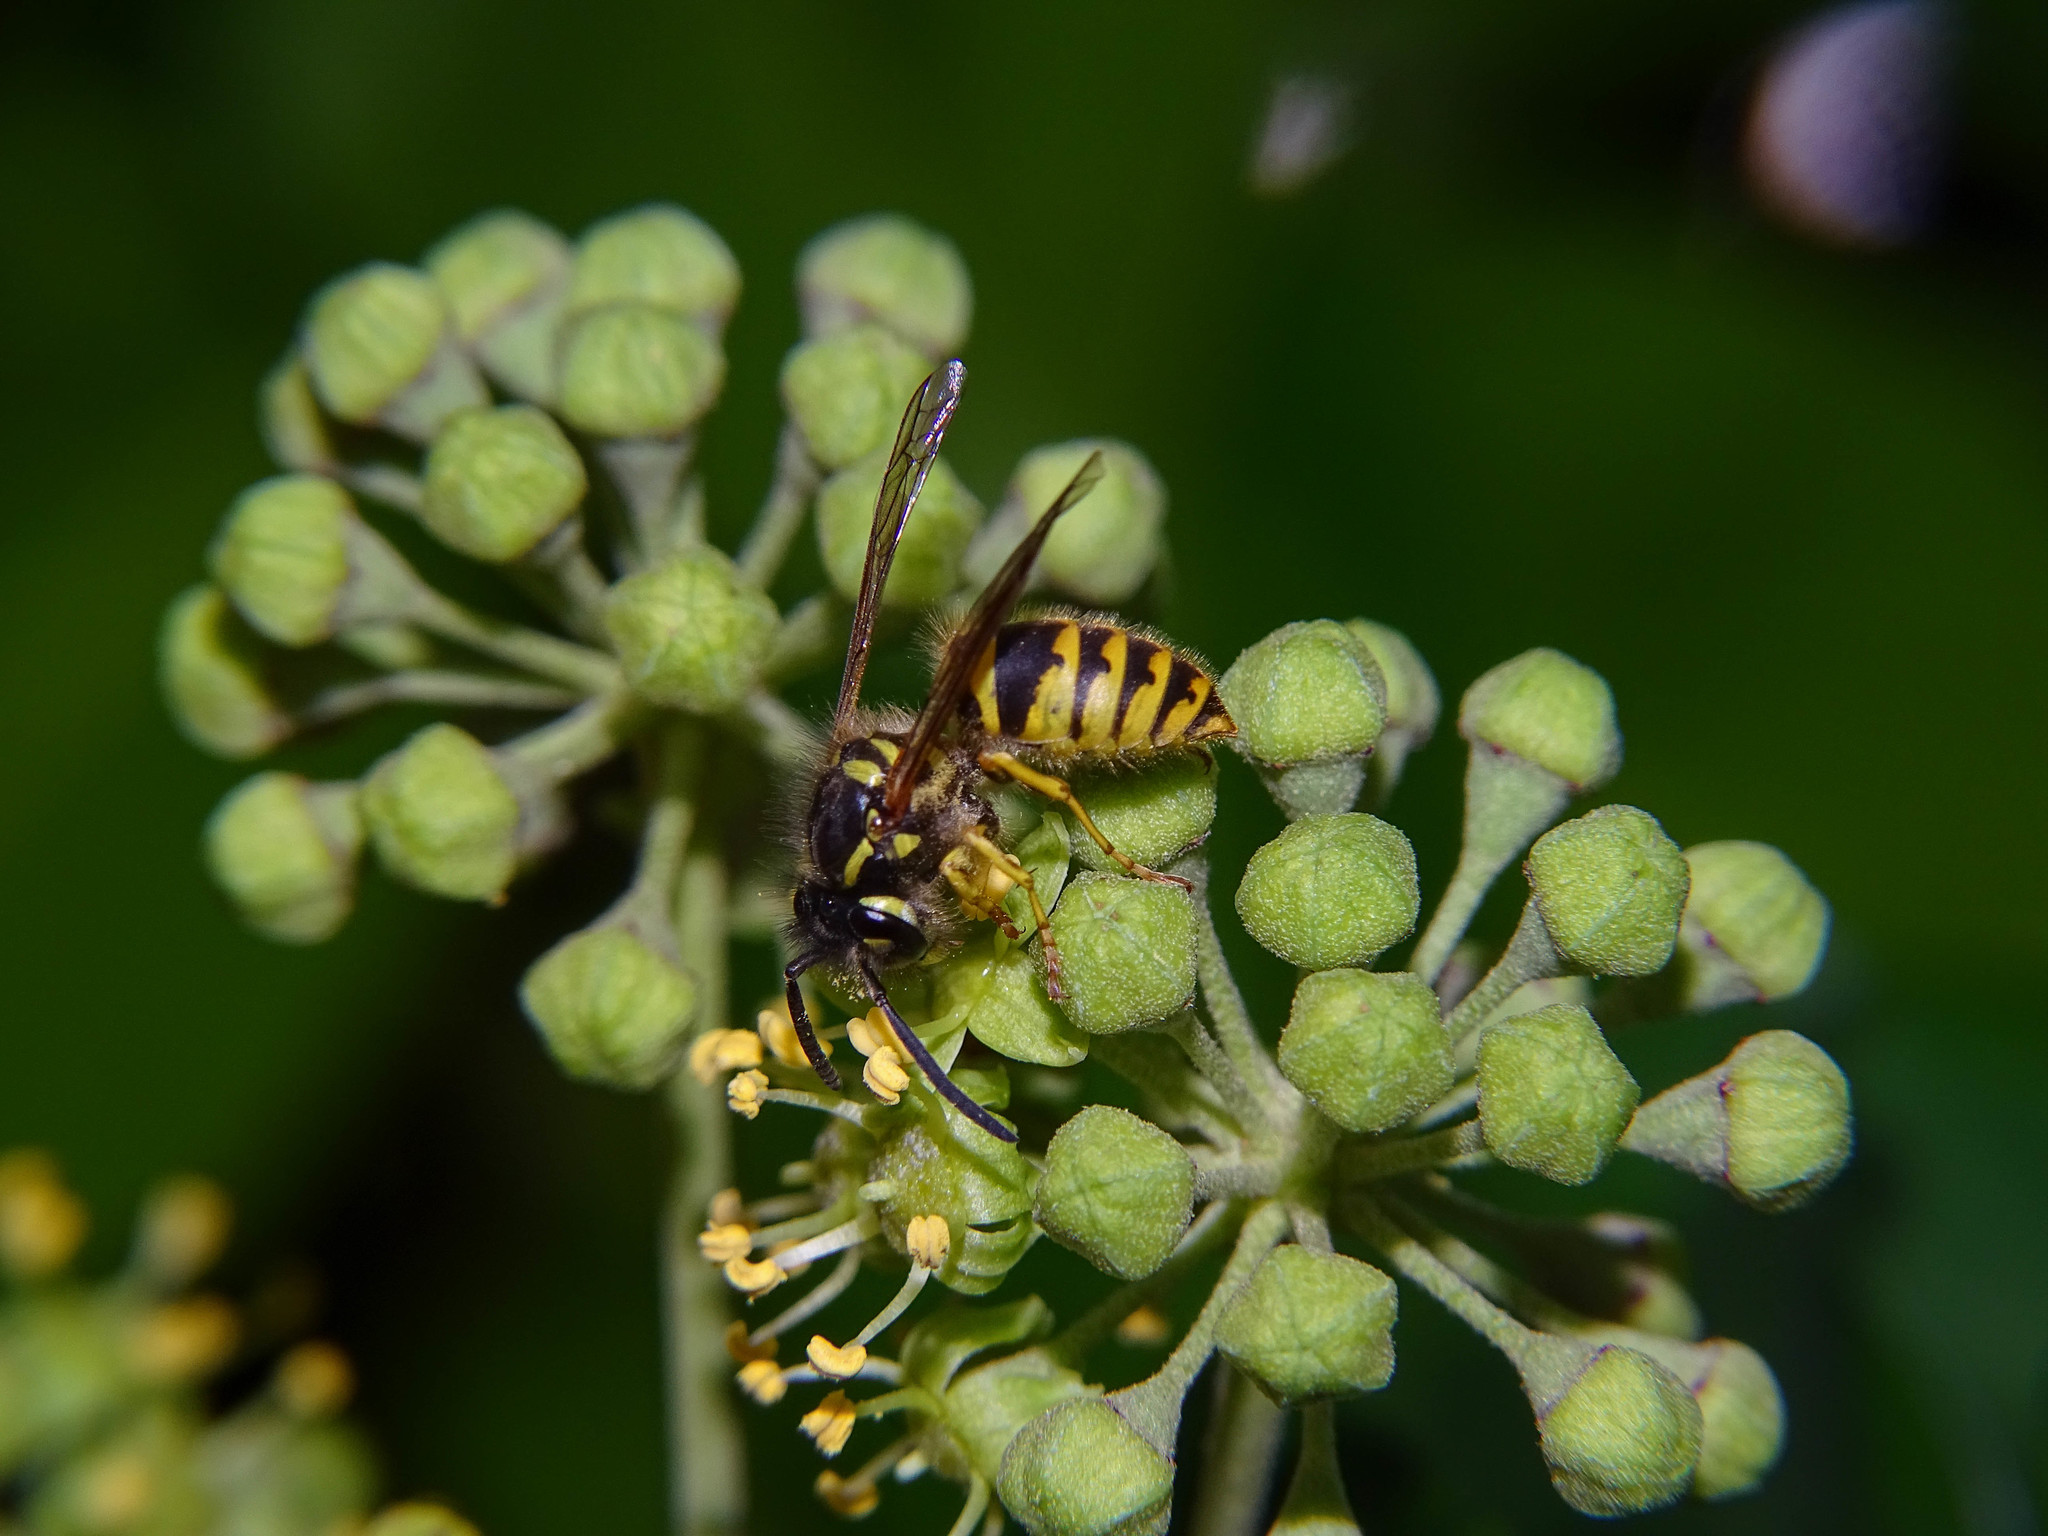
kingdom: Animalia
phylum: Arthropoda
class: Insecta
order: Hymenoptera
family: Vespidae
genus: Vespula
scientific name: Vespula vulgaris
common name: Common wasp
